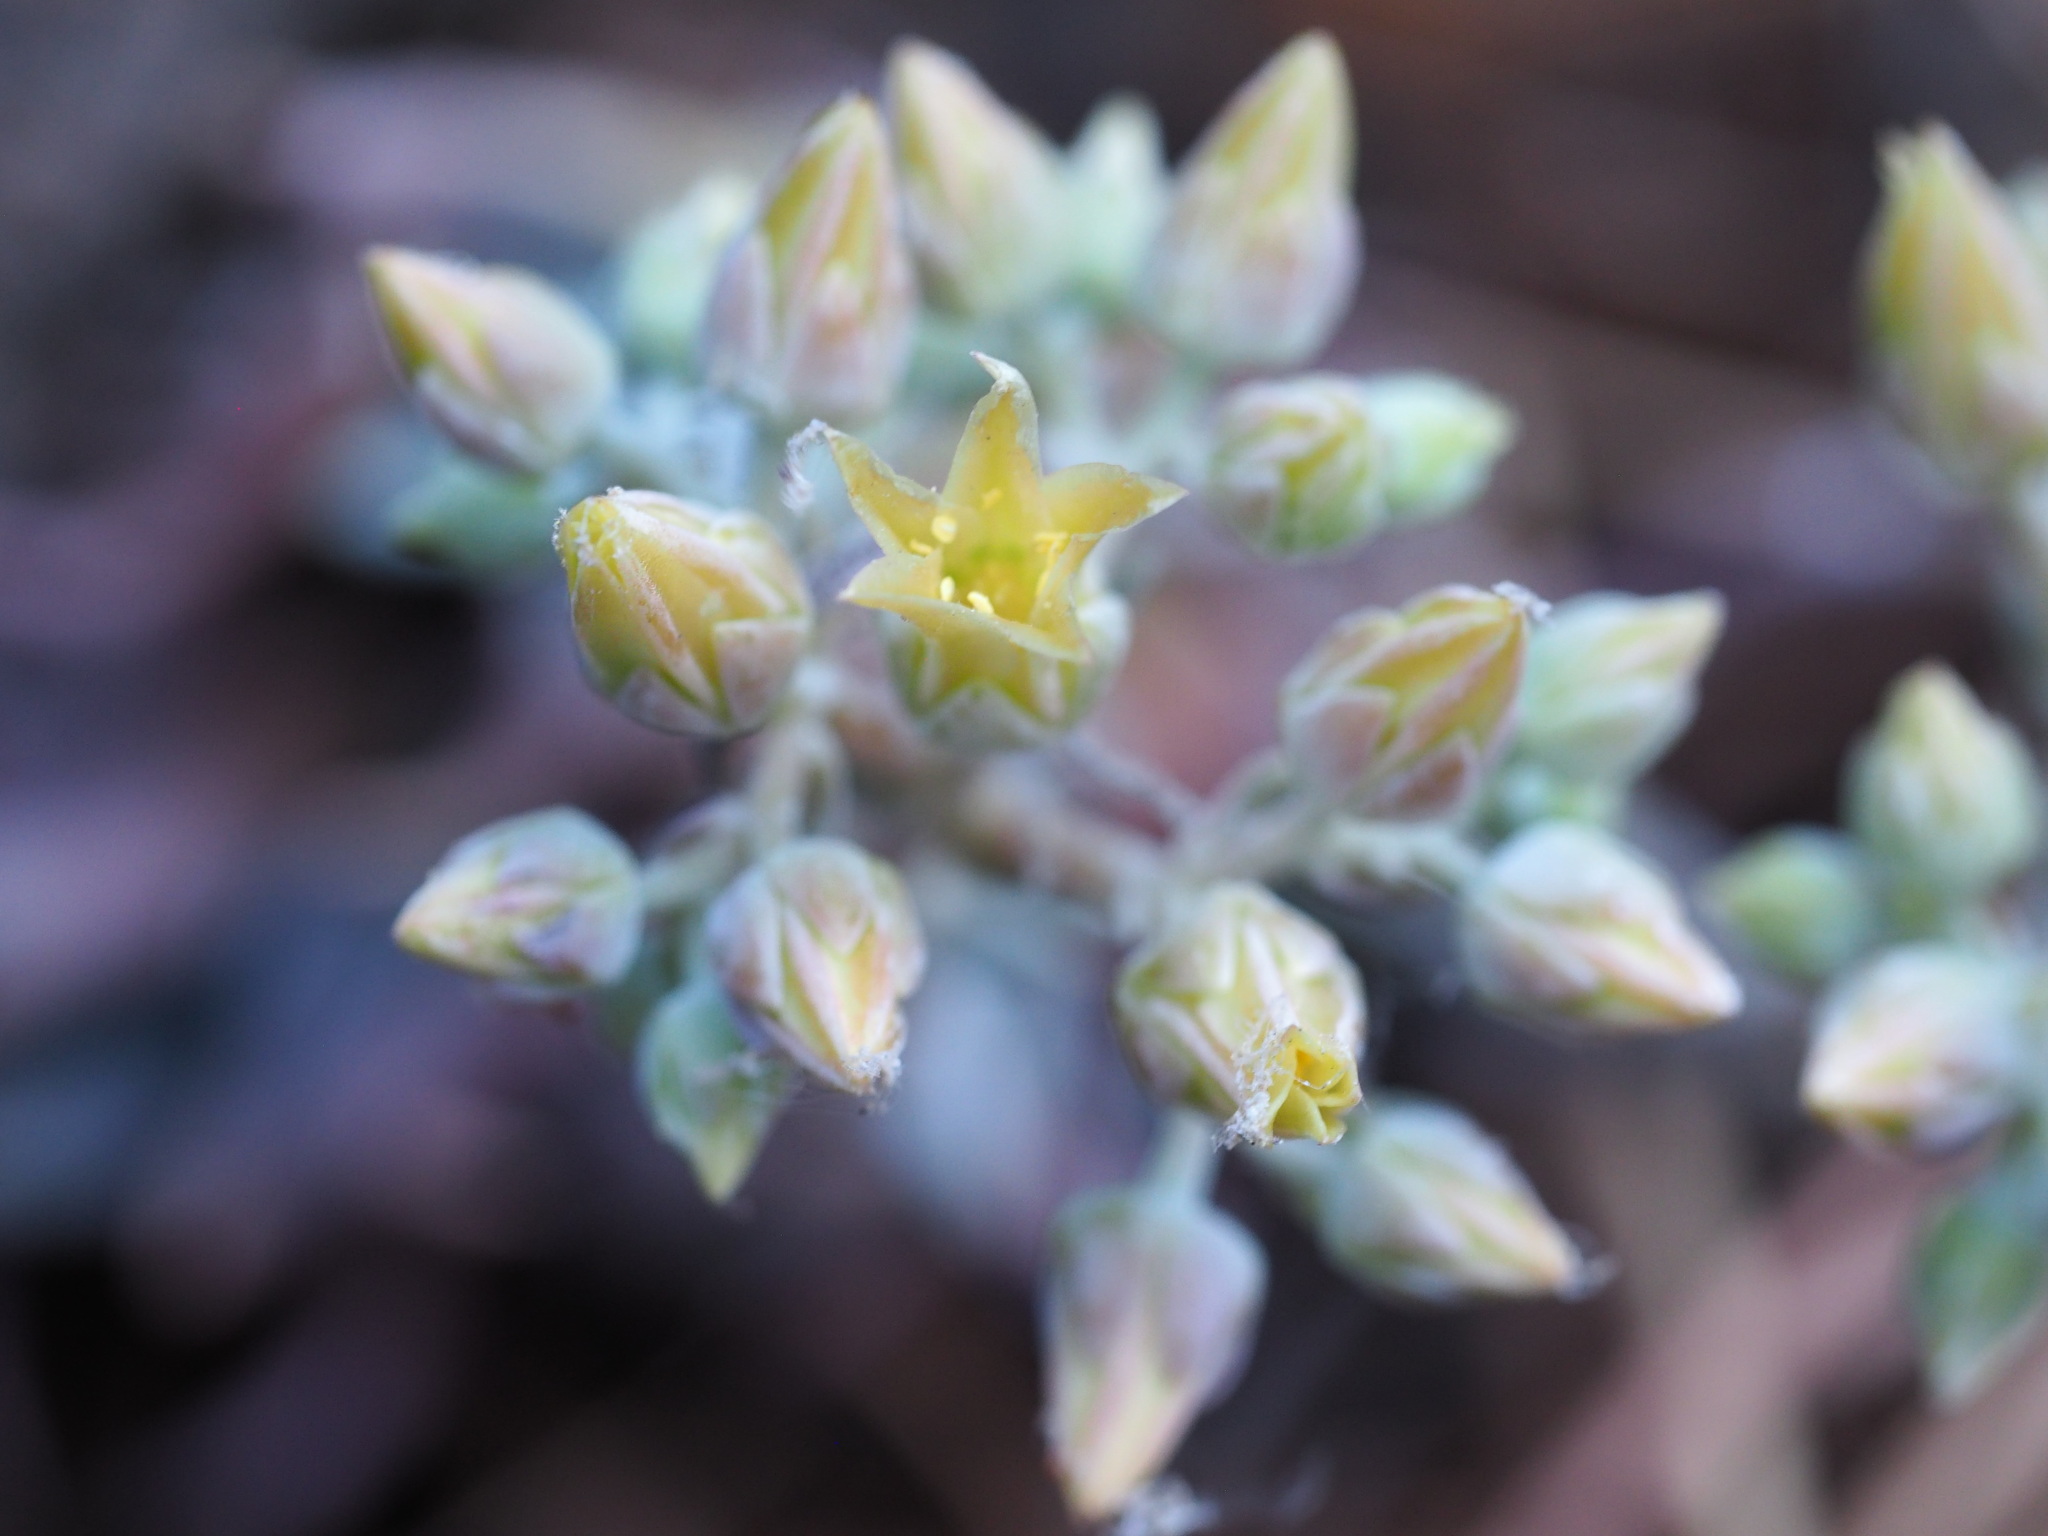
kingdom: Plantae
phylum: Tracheophyta
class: Magnoliopsida
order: Saxifragales
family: Crassulaceae
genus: Dudleya
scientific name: Dudleya calcicola
